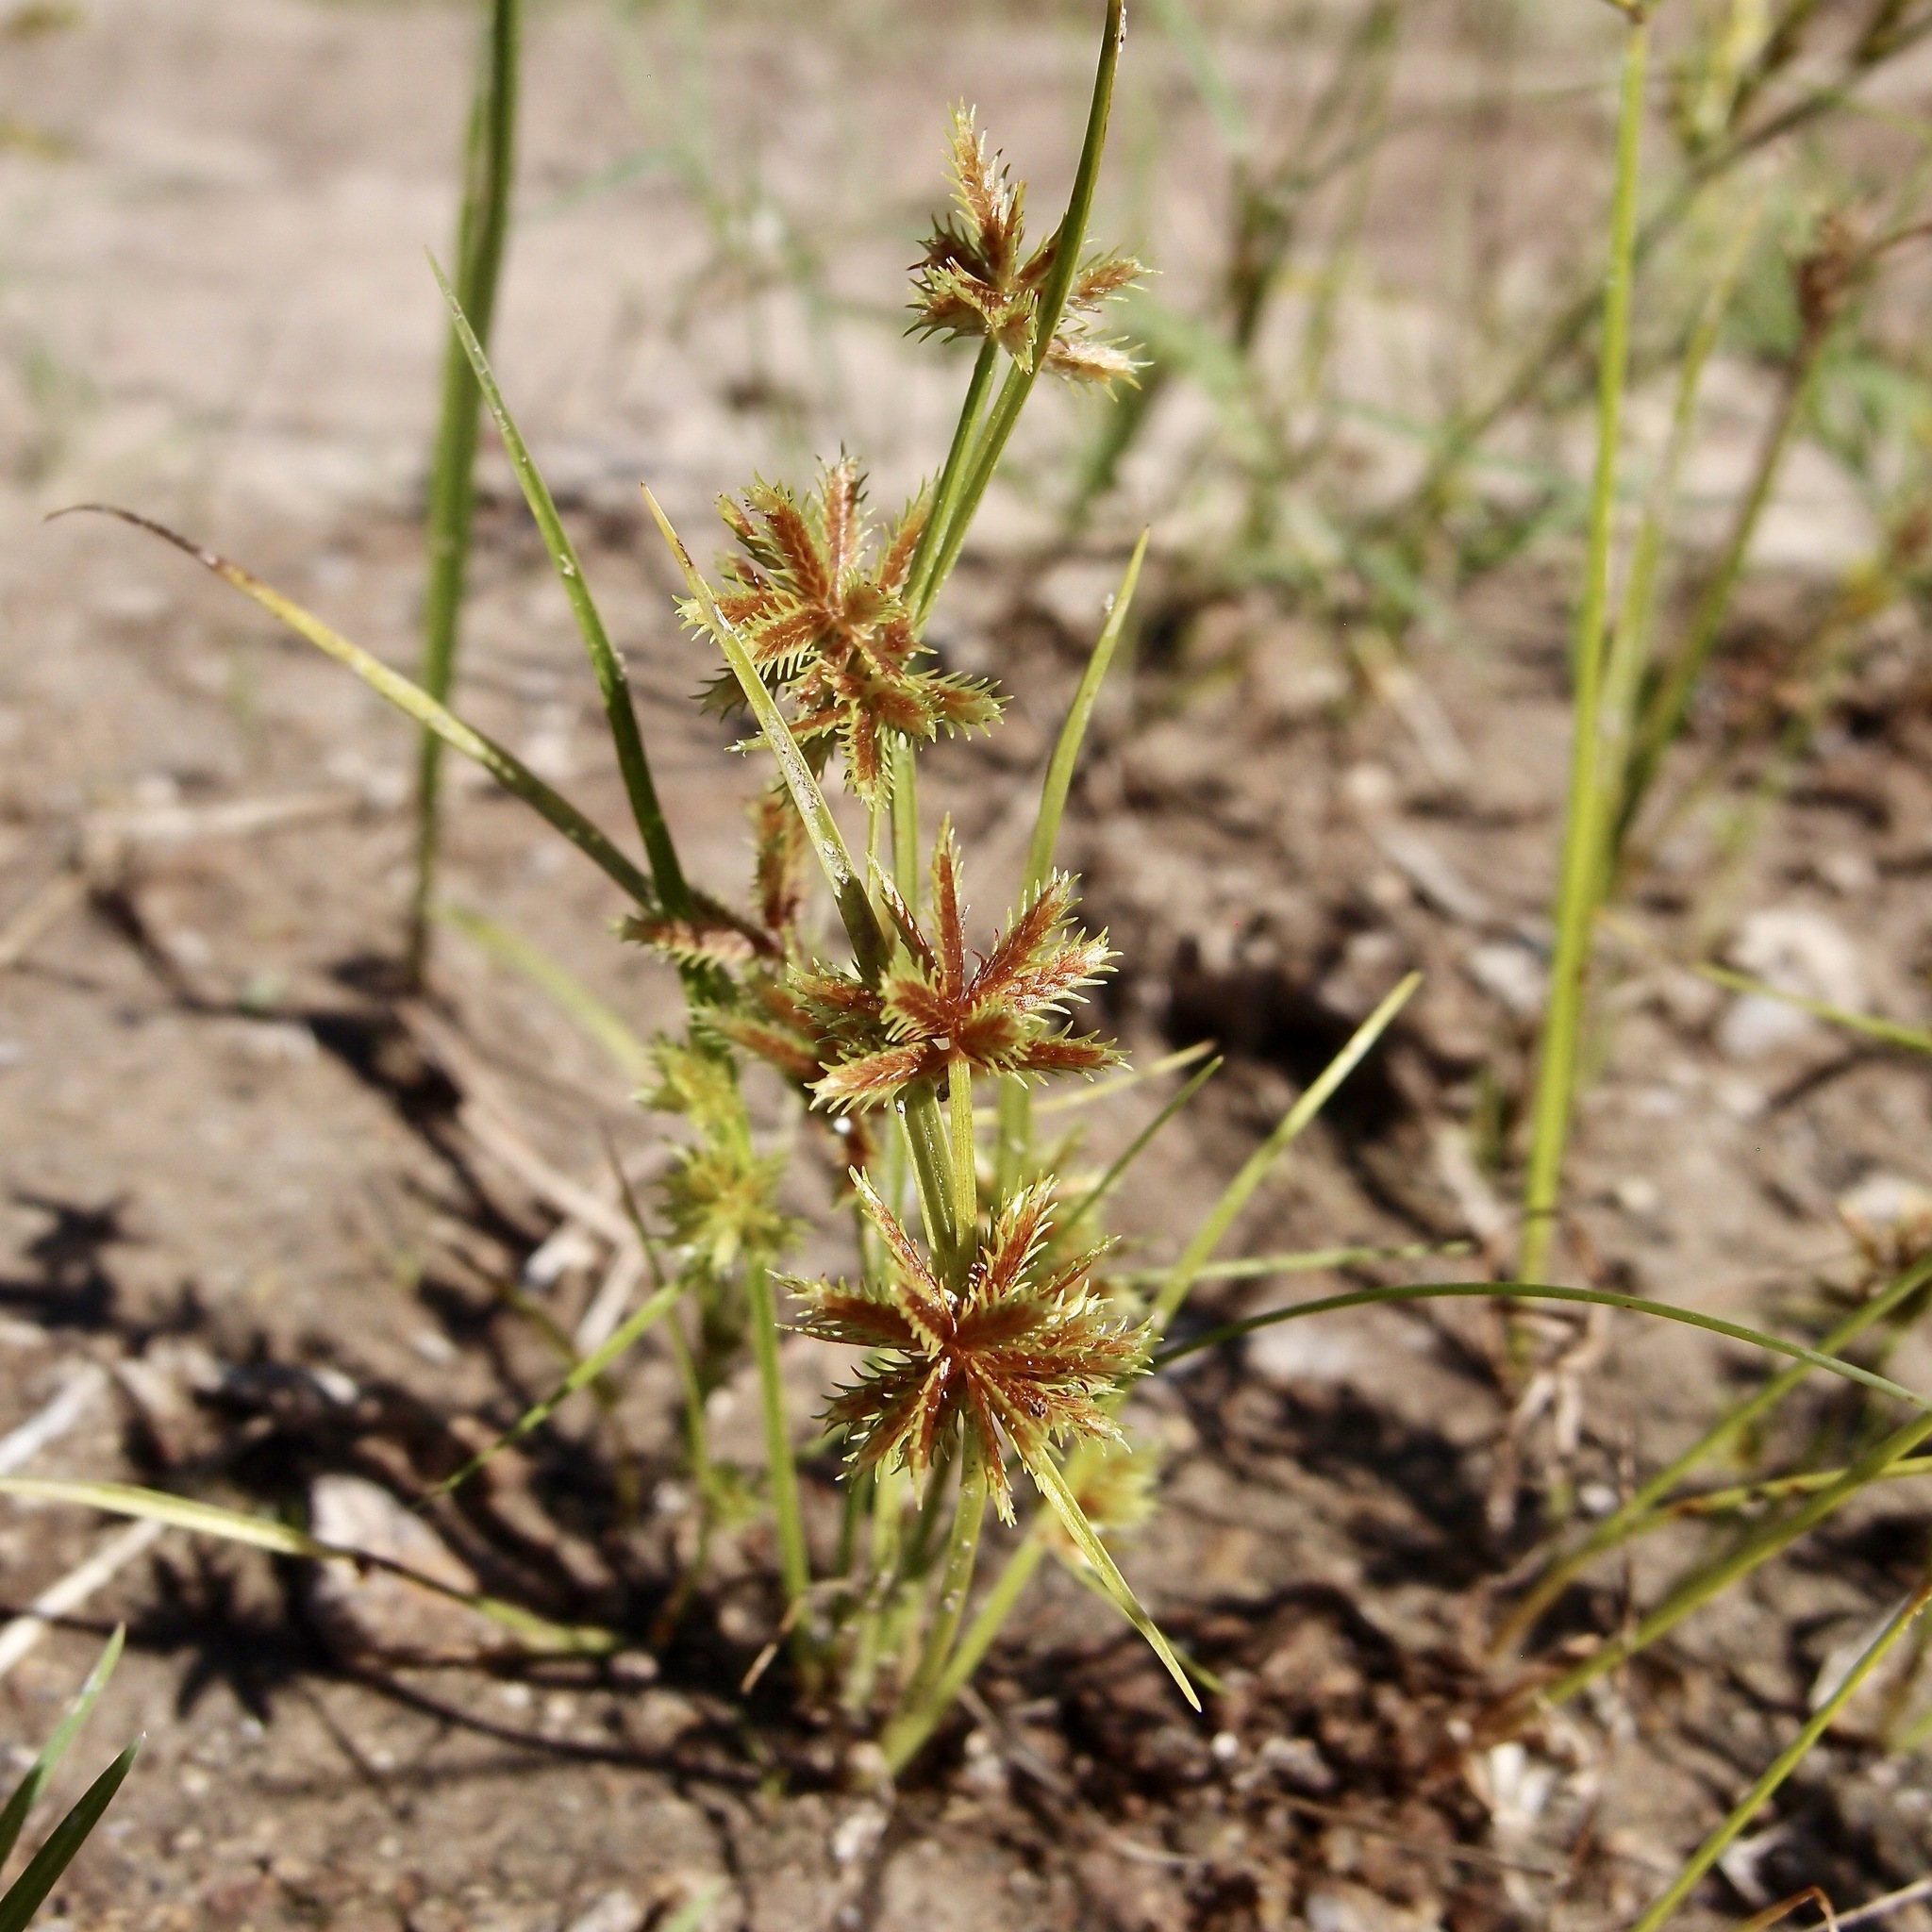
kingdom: Plantae
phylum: Tracheophyta
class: Liliopsida
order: Poales
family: Cyperaceae
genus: Cyperus
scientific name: Cyperus squarrosus
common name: Awned cyperus
